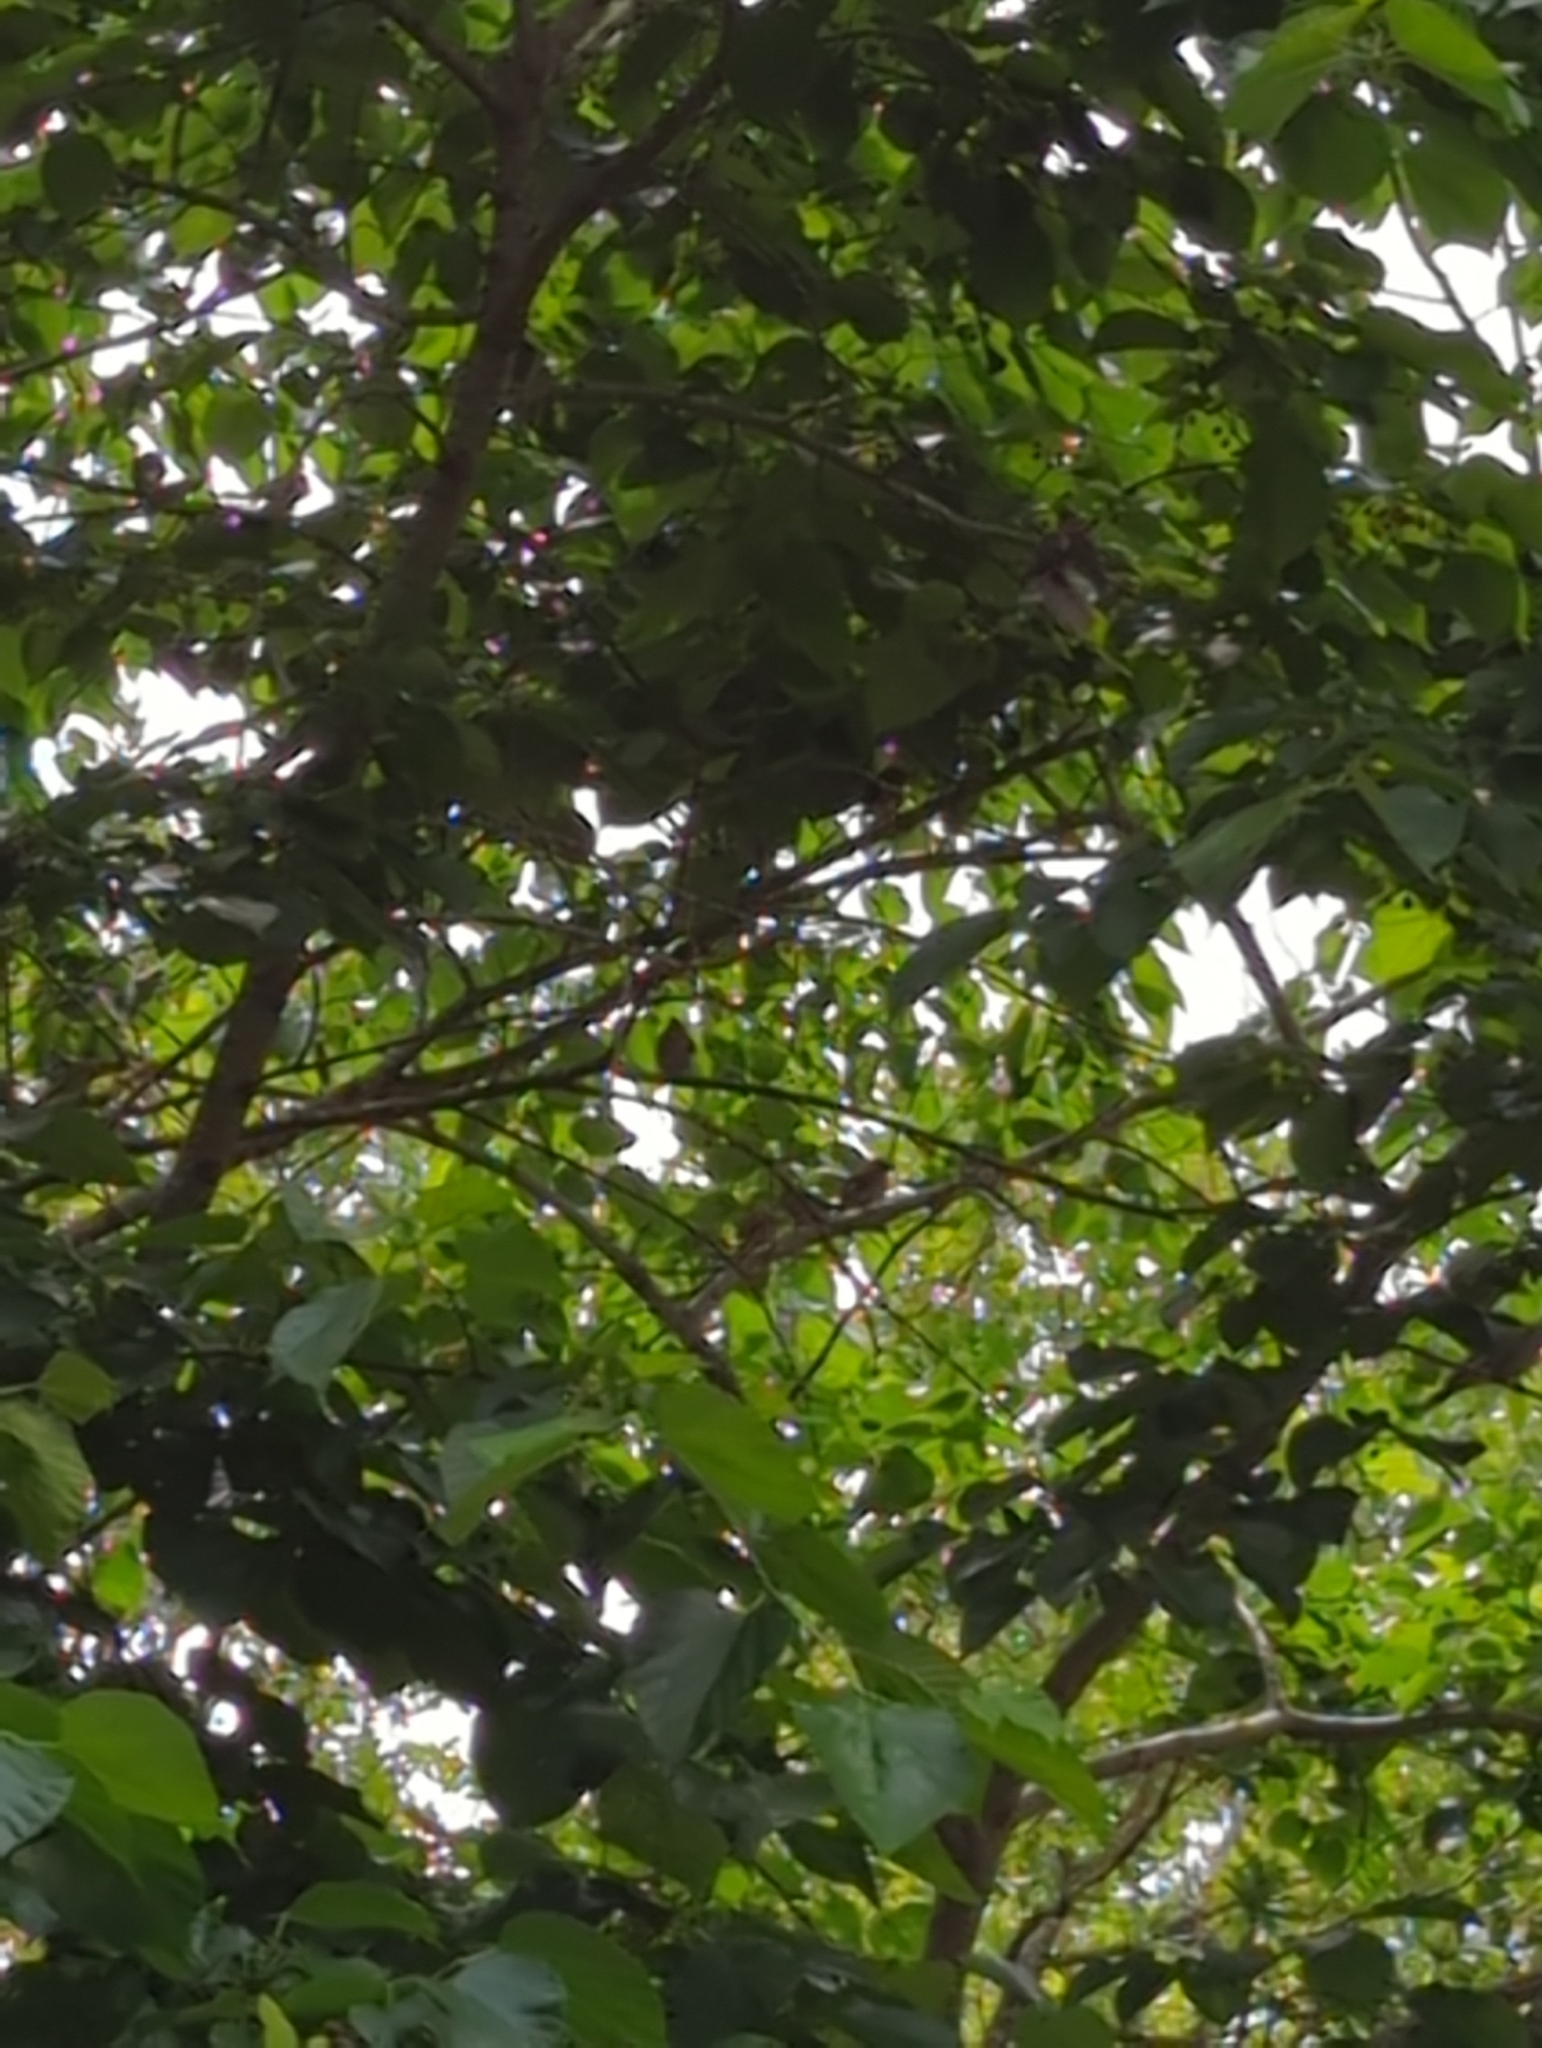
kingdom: Animalia
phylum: Chordata
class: Aves
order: Passeriformes
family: Bombycillidae
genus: Bombycilla
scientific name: Bombycilla cedrorum
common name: Cedar waxwing
